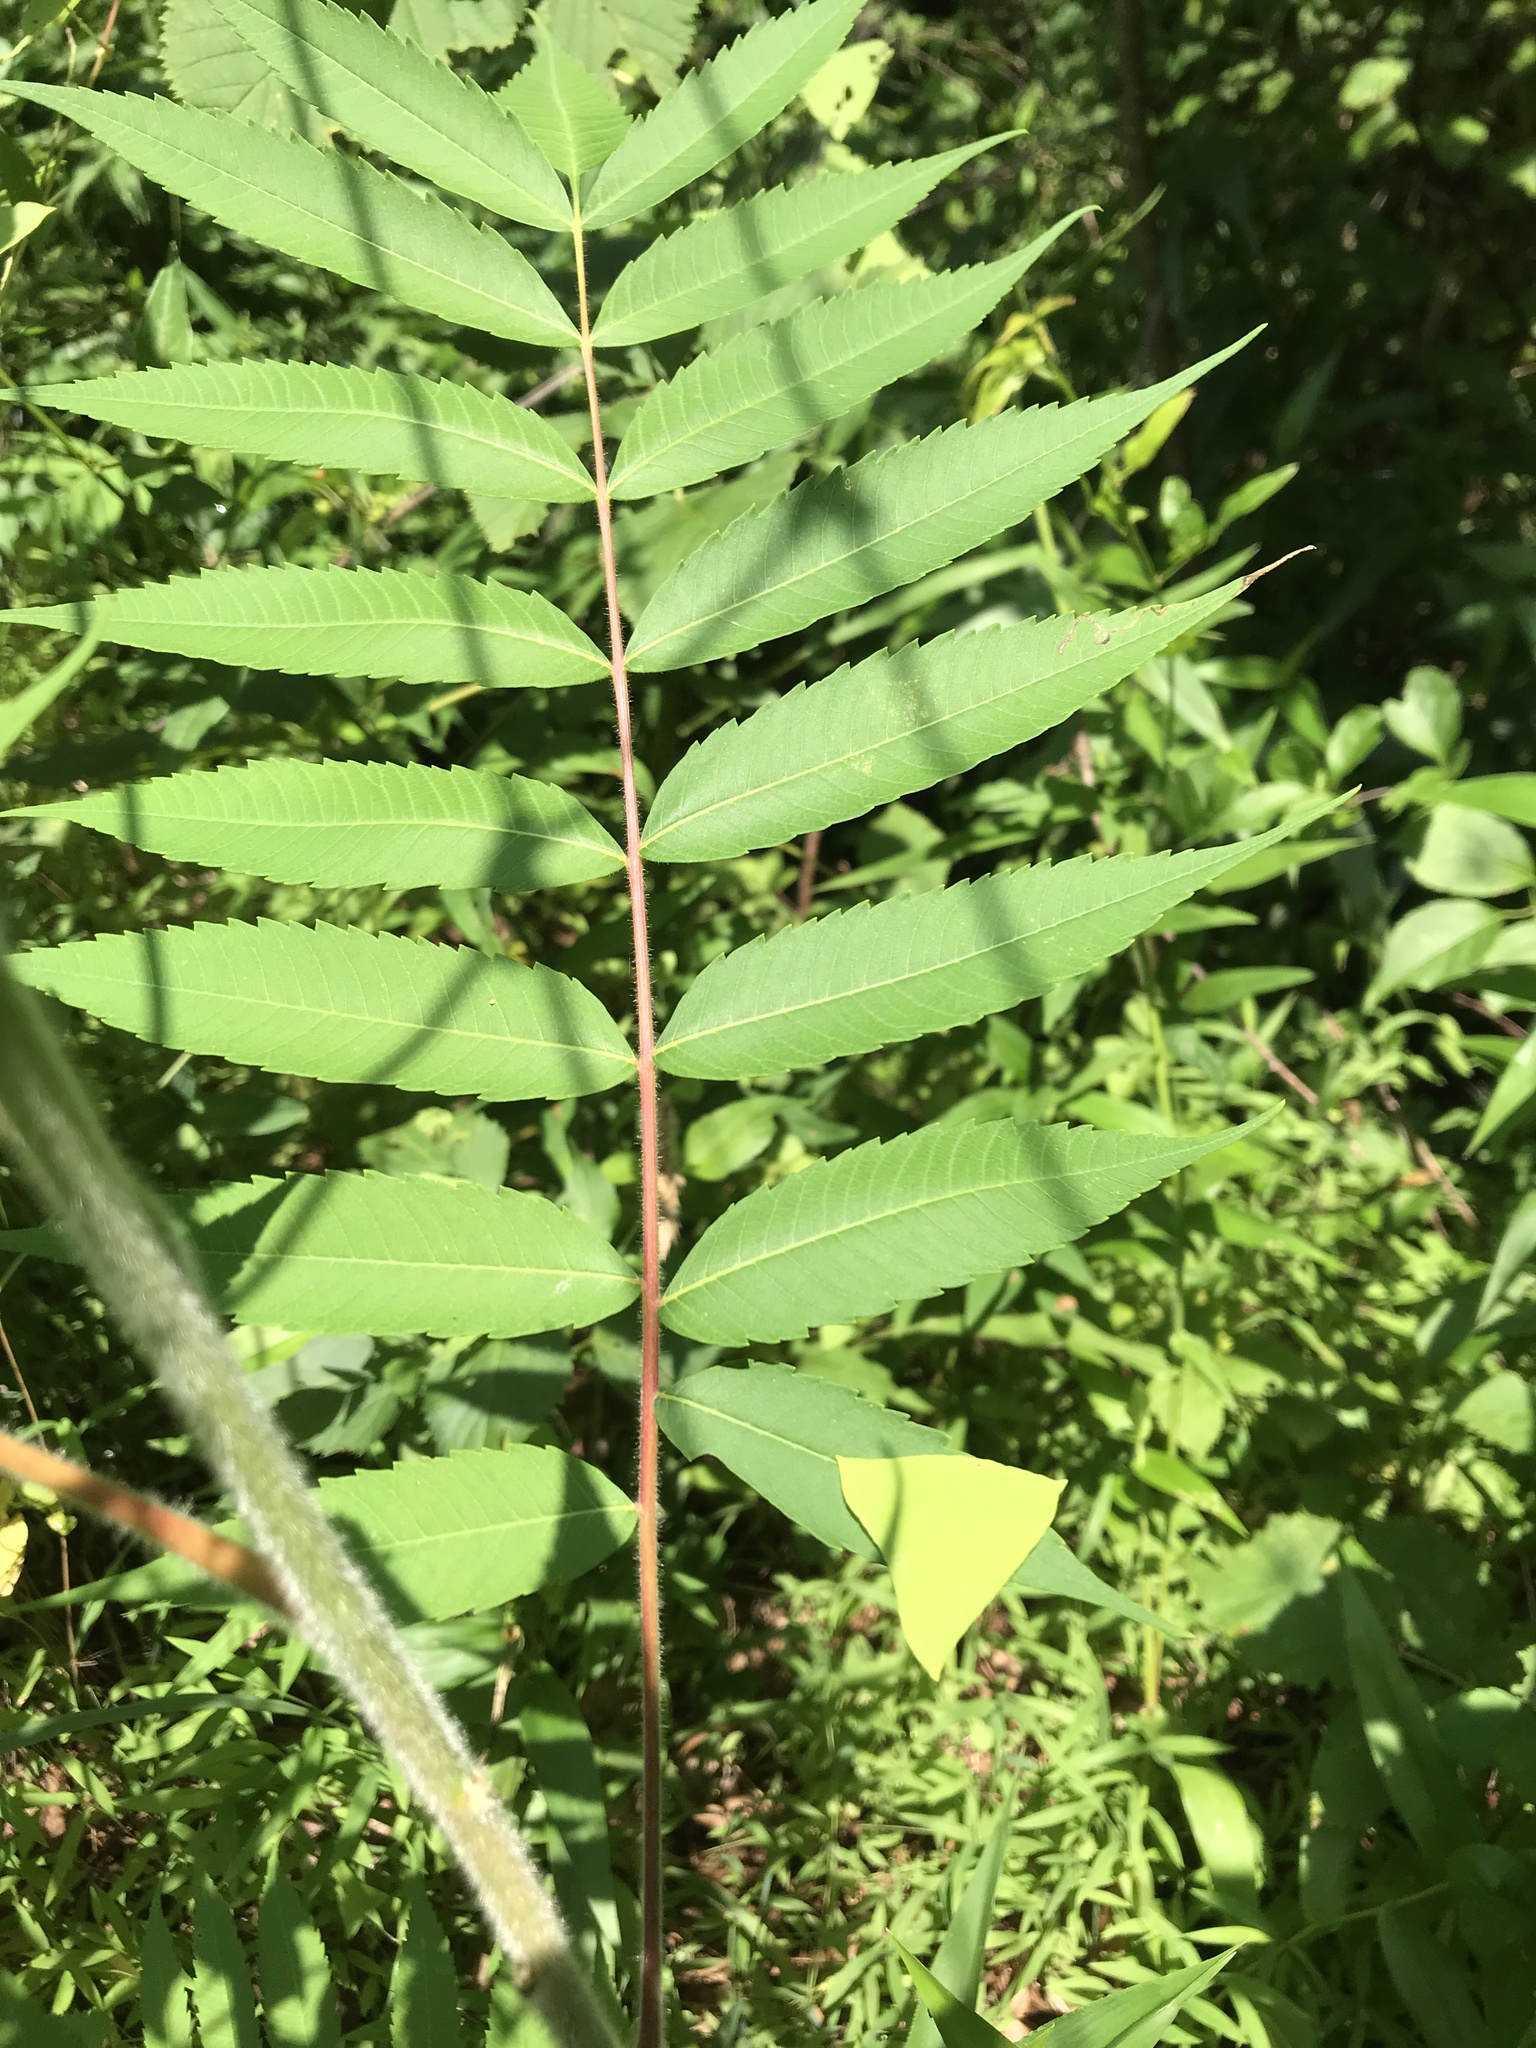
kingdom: Plantae
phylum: Tracheophyta
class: Magnoliopsida
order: Sapindales
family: Anacardiaceae
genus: Rhus
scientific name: Rhus typhina
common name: Staghorn sumac
